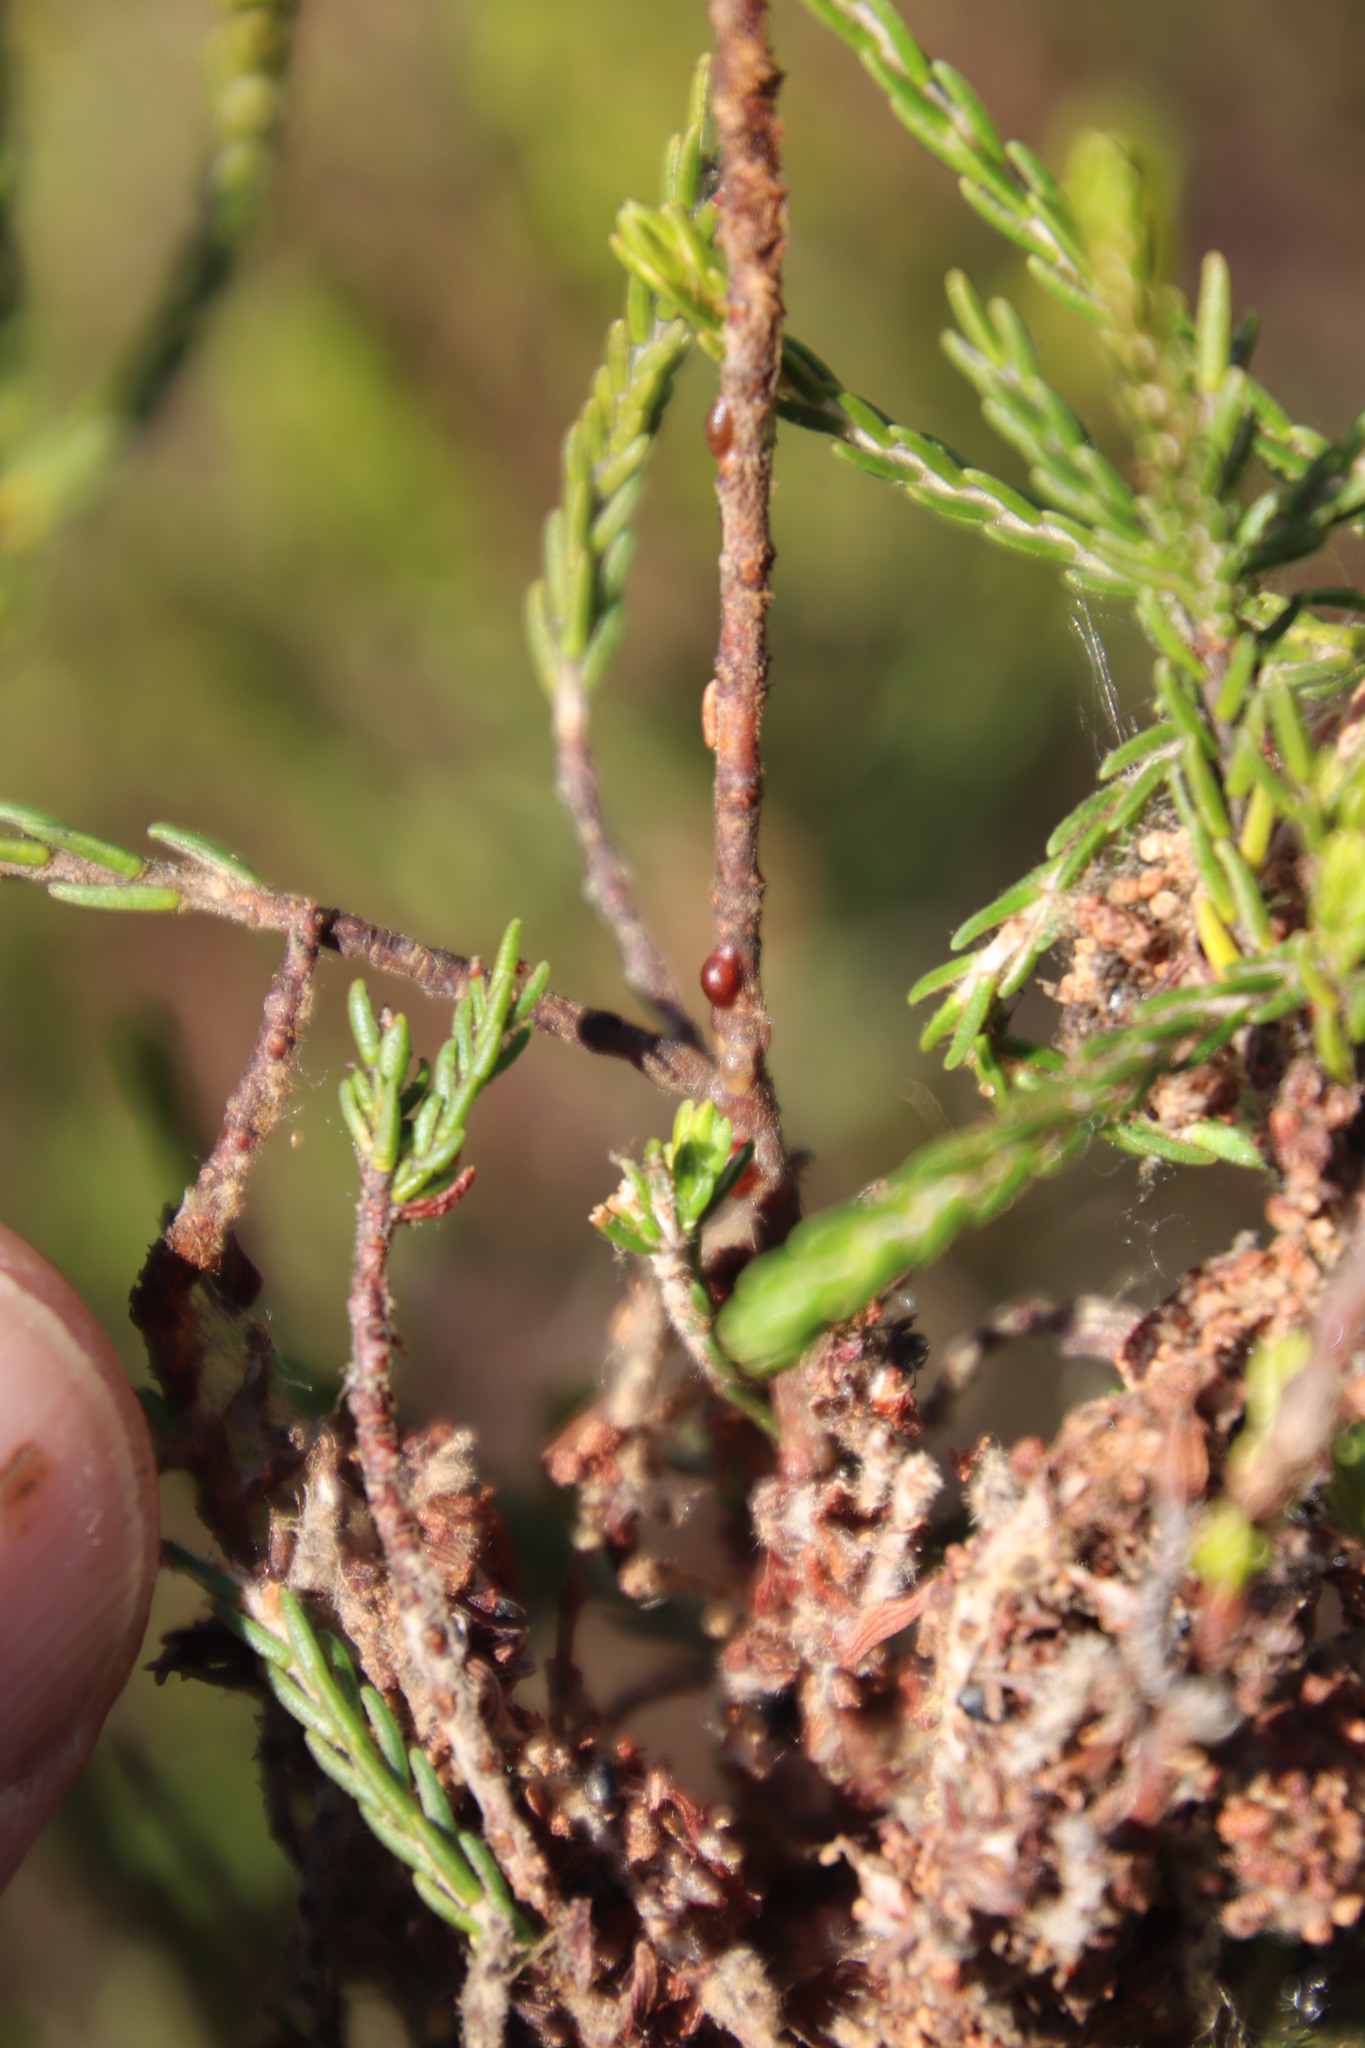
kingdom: Animalia
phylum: Arthropoda
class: Insecta
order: Hymenoptera
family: Formicidae
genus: Crematogaster
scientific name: Crematogaster peringueyi
